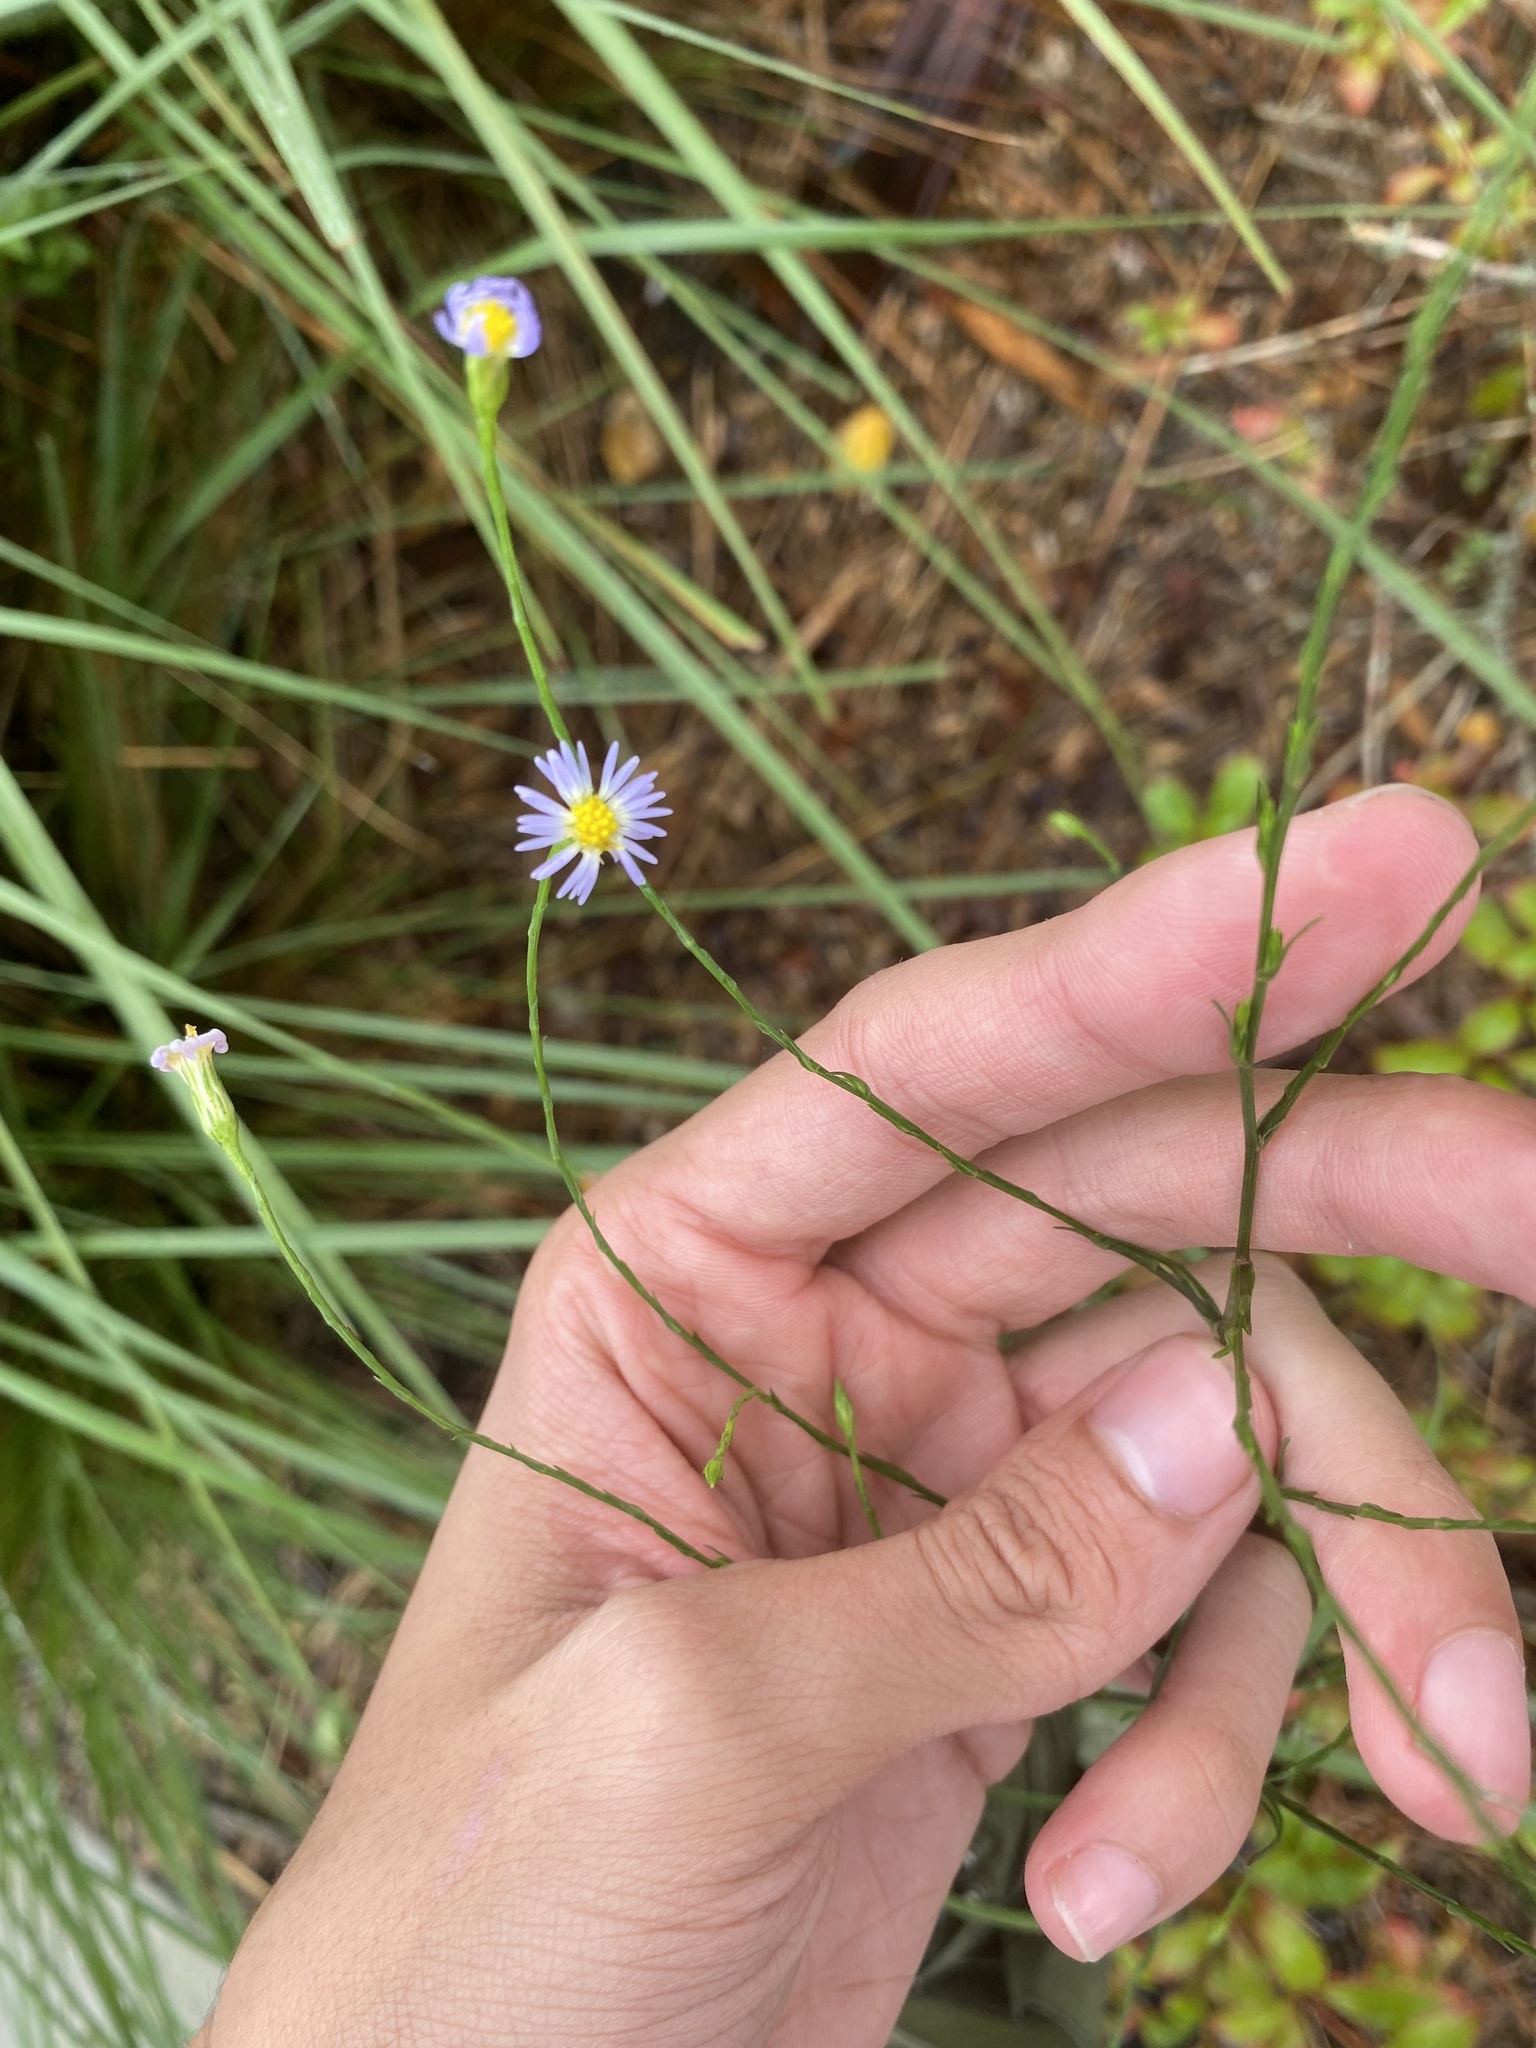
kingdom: Plantae
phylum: Tracheophyta
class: Magnoliopsida
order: Asterales
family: Asteraceae
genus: Symphyotrichum
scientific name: Symphyotrichum subulatum
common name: Annual saltmarsh aster
